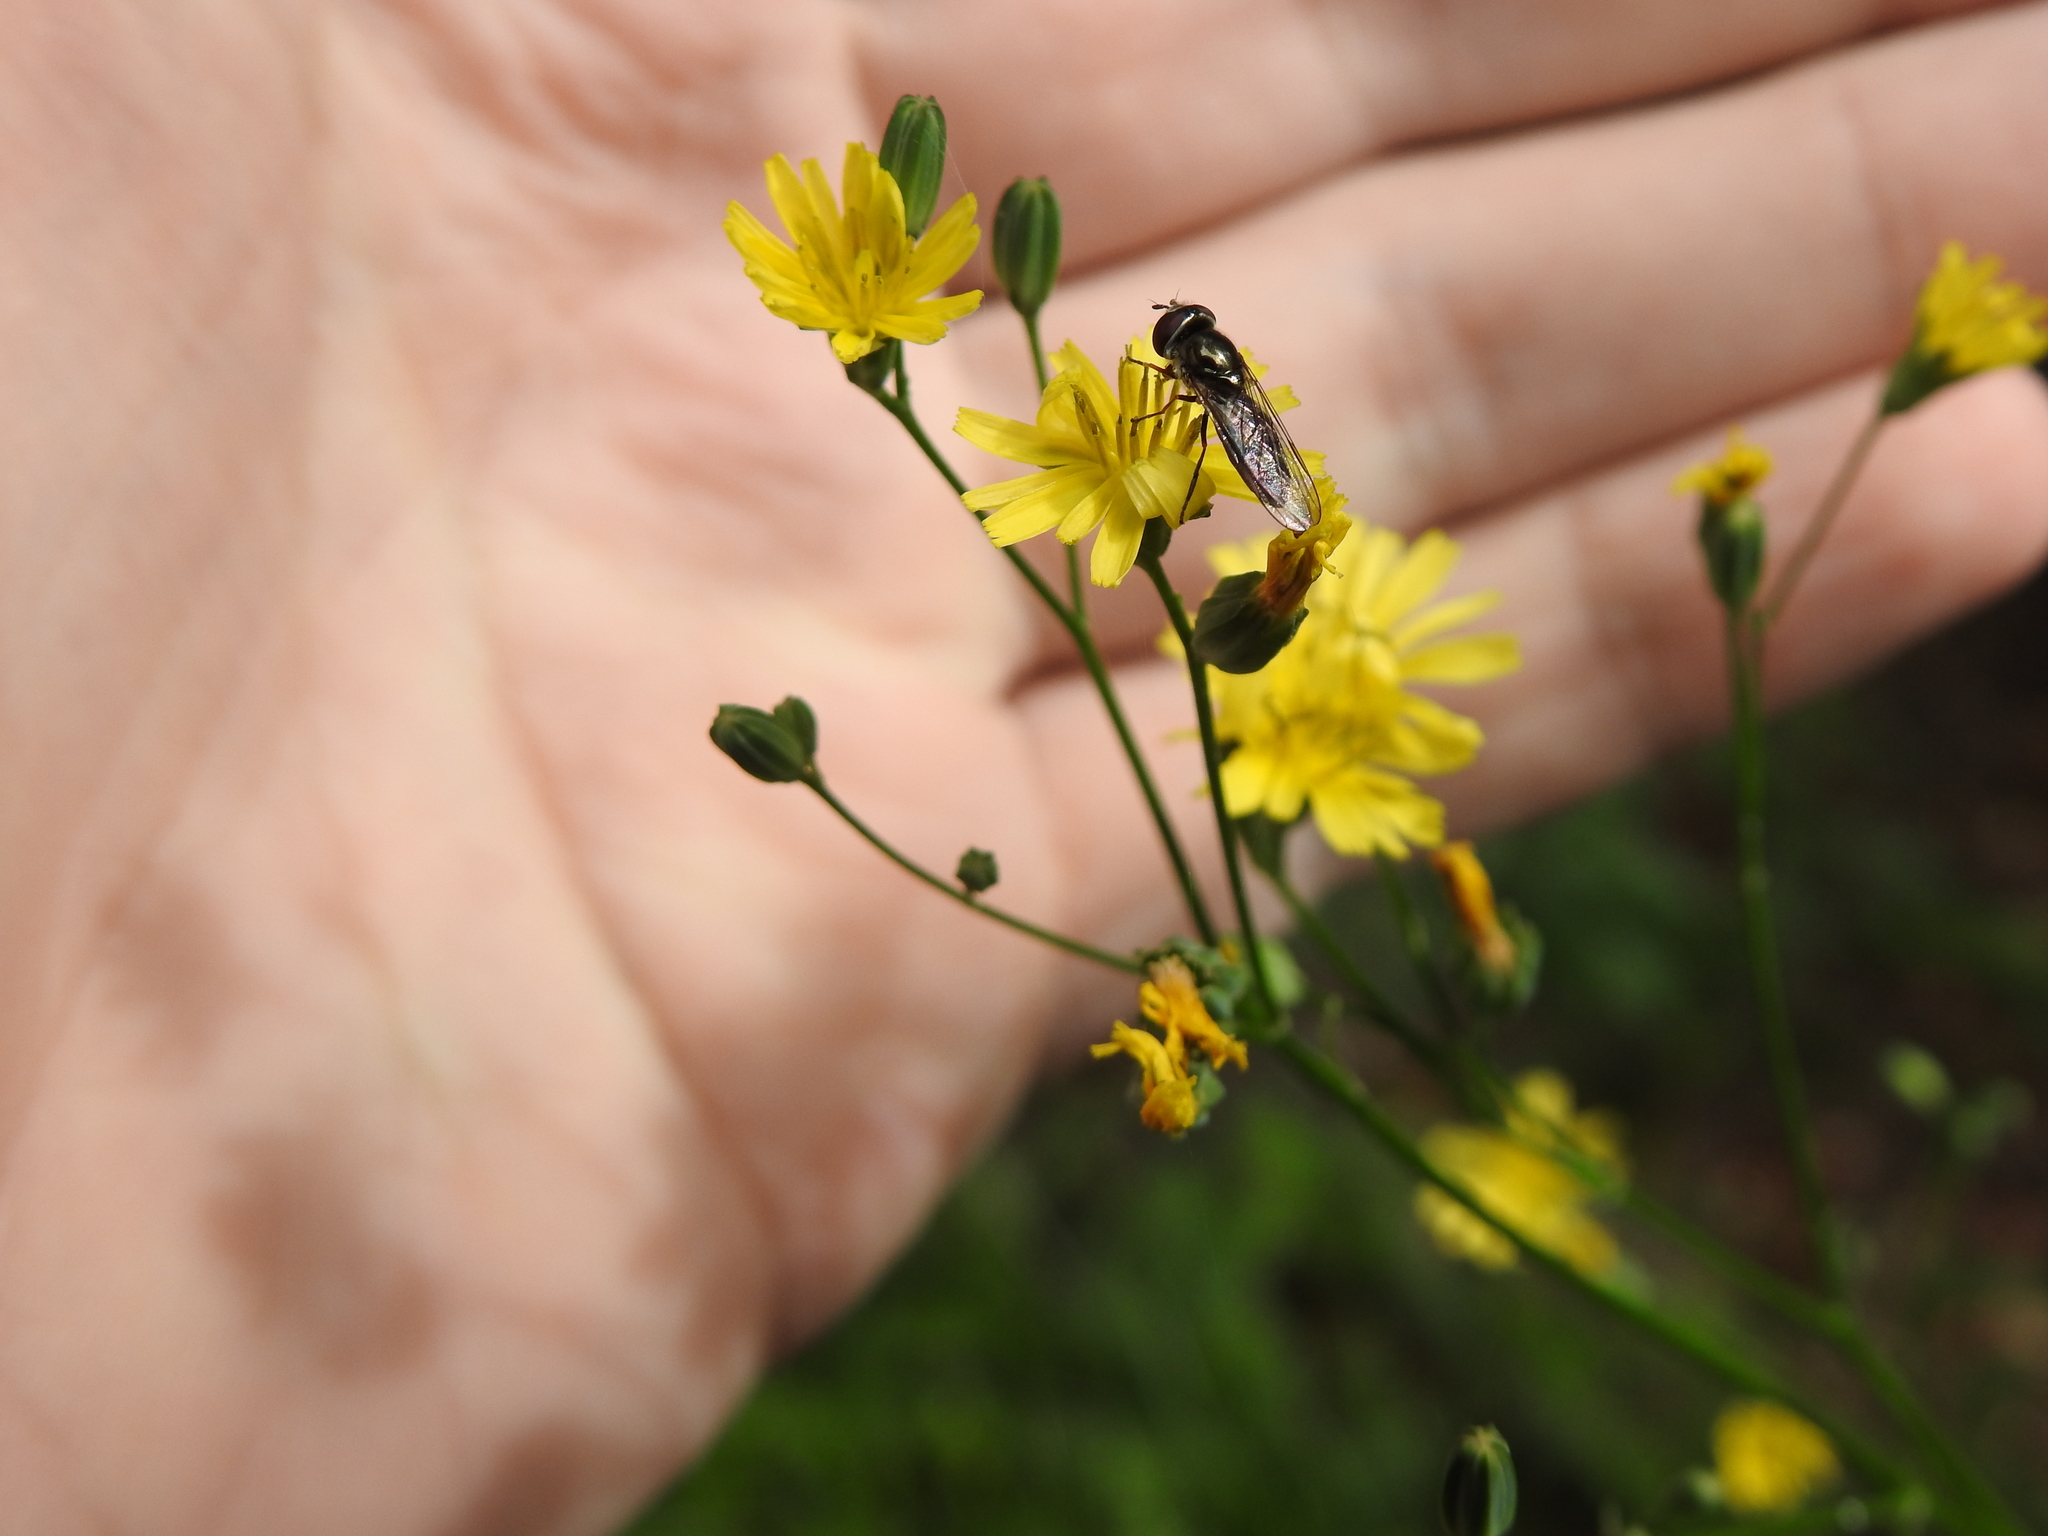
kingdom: Plantae
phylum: Tracheophyta
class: Magnoliopsida
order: Asterales
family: Asteraceae
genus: Lapsana
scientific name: Lapsana communis
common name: Nipplewort
